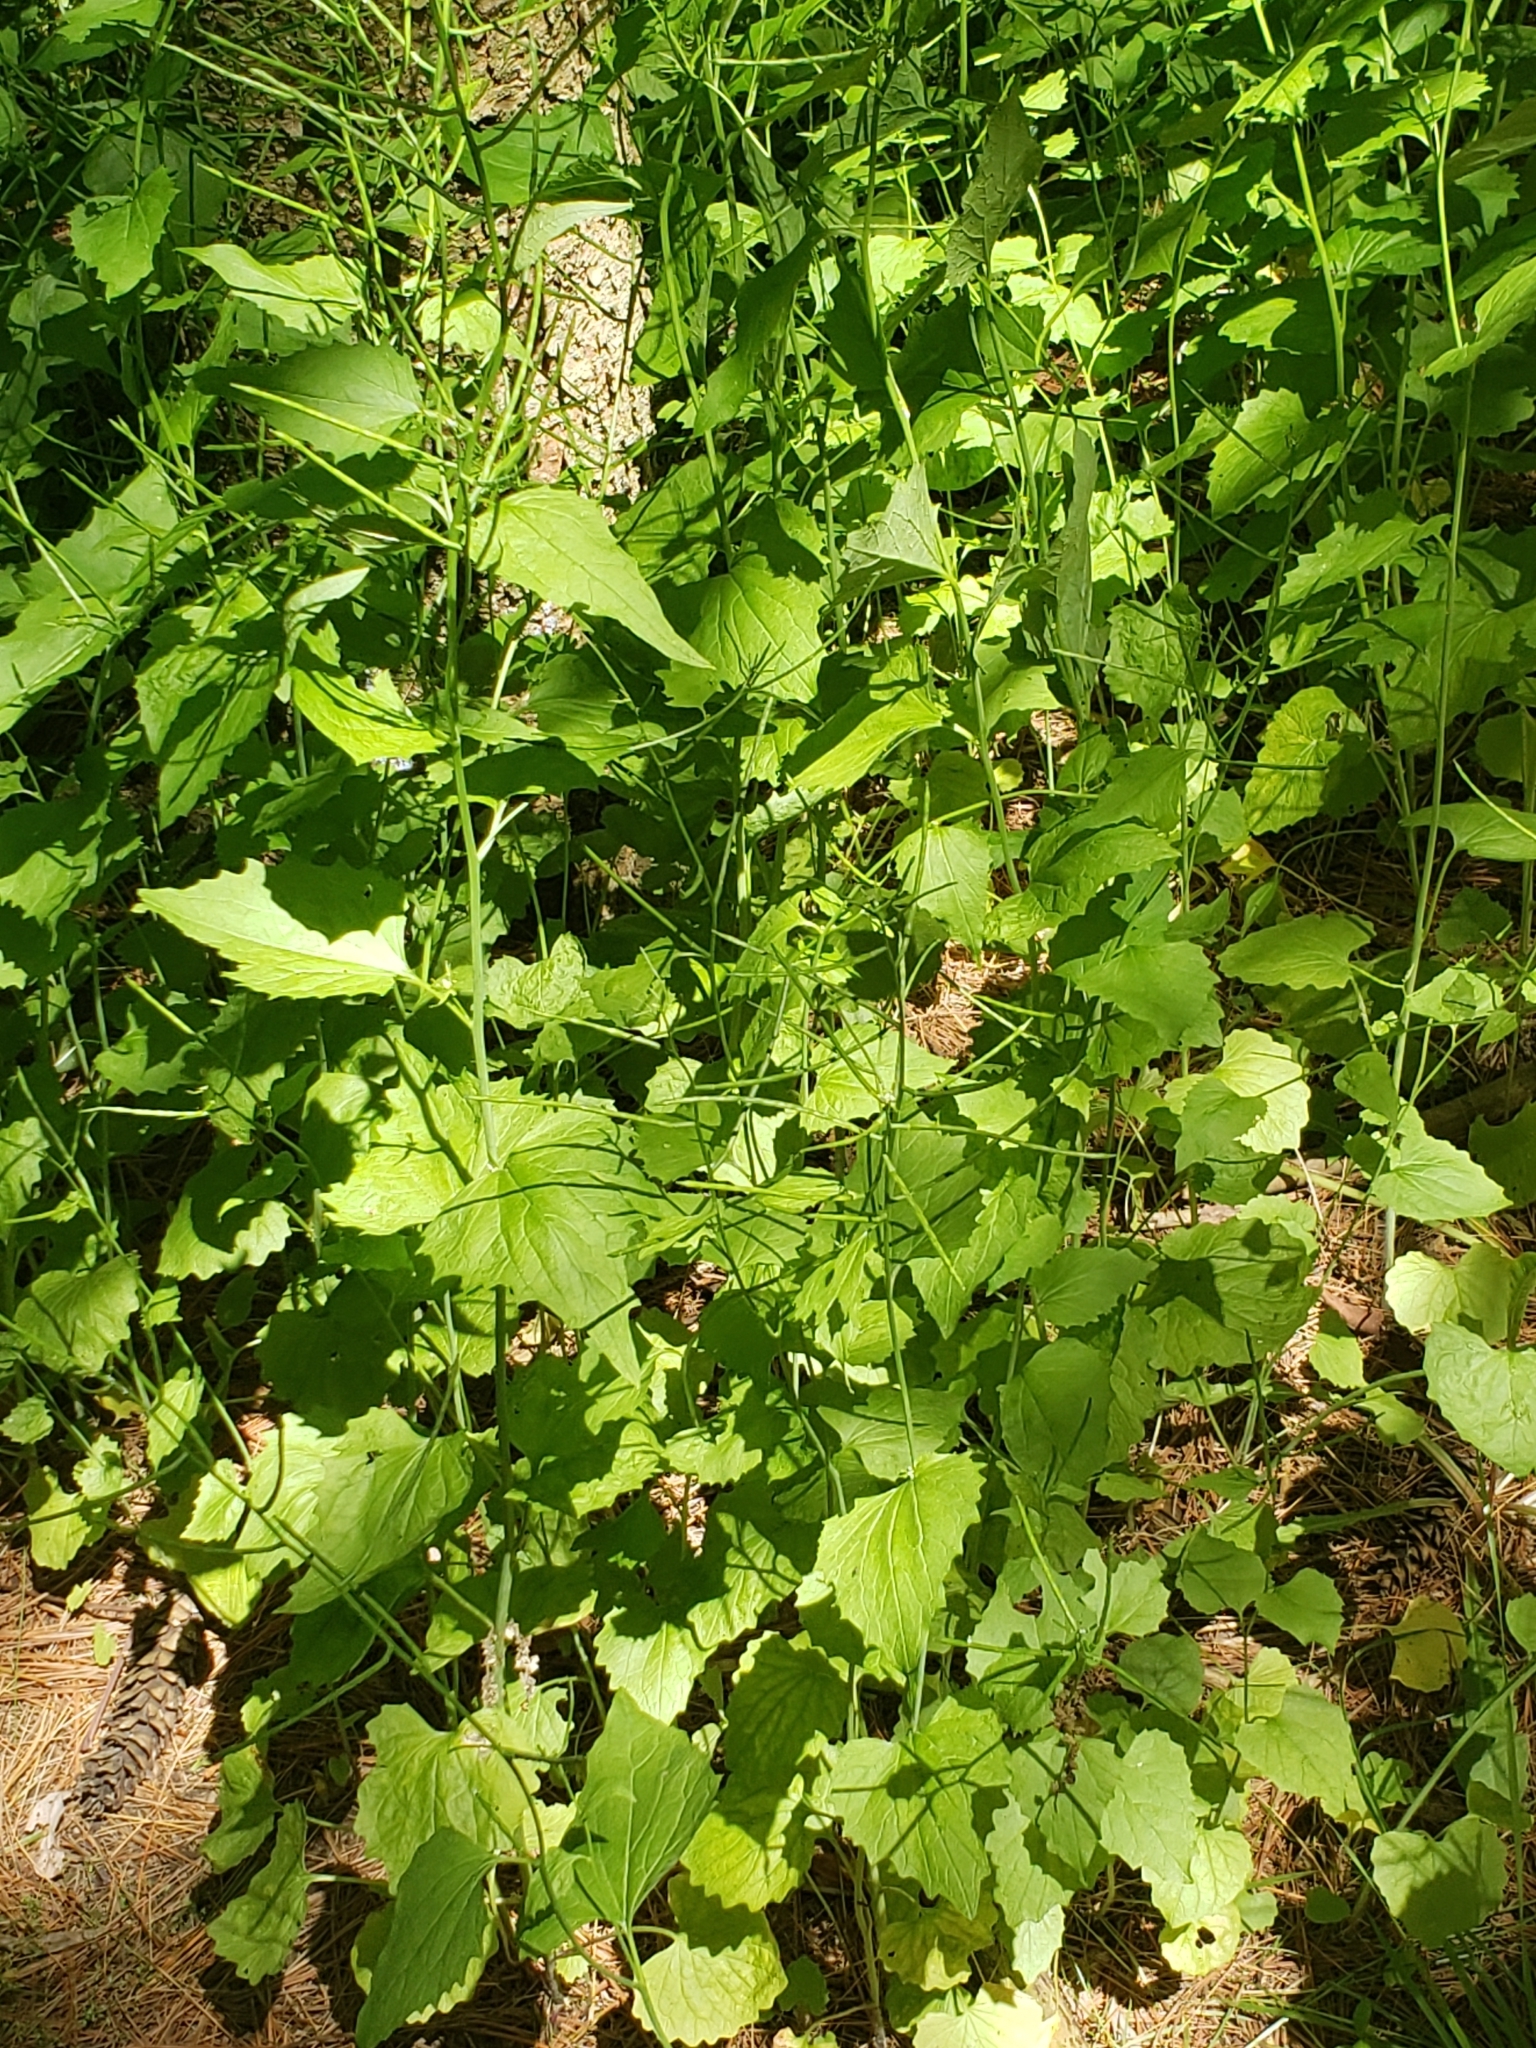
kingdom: Plantae
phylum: Tracheophyta
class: Magnoliopsida
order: Brassicales
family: Brassicaceae
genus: Alliaria
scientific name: Alliaria petiolata
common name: Garlic mustard
